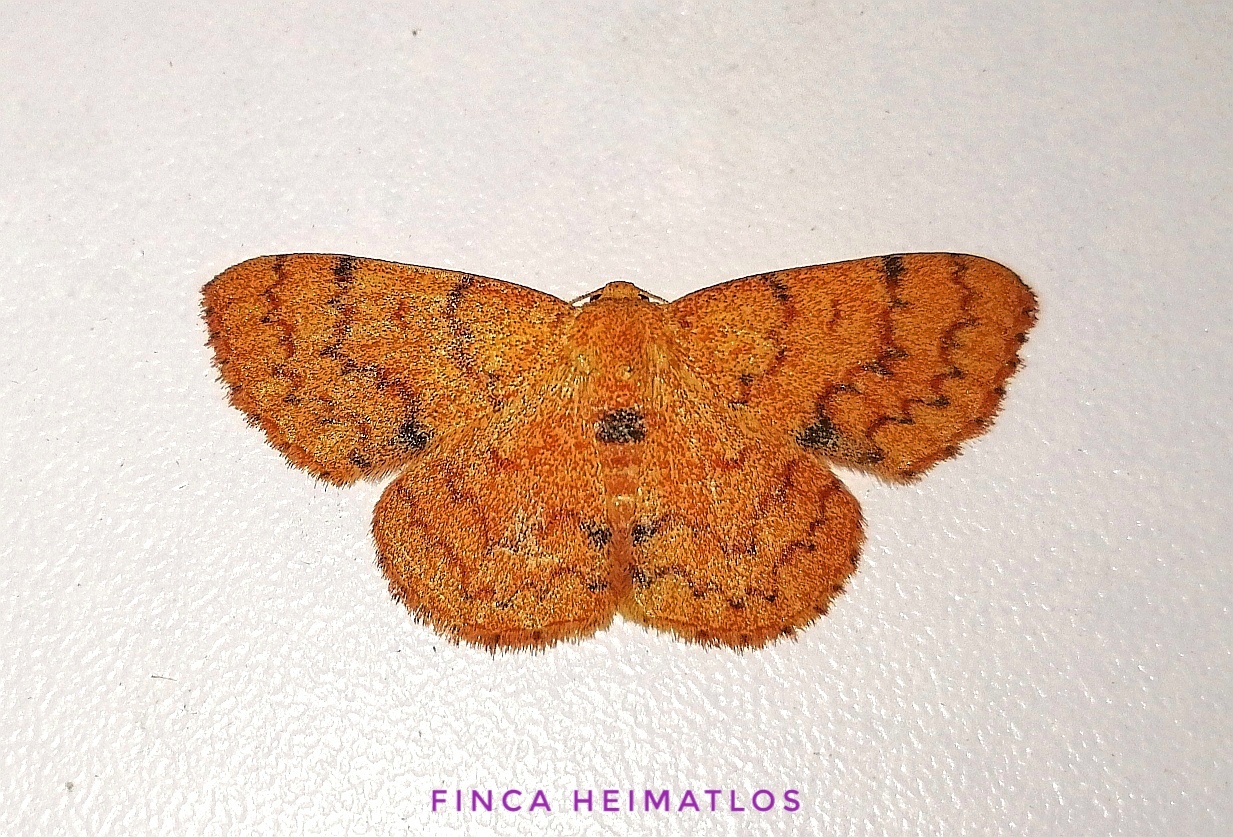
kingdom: Animalia
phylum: Arthropoda
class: Insecta
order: Lepidoptera
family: Geometridae
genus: Semaeopus
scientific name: Semaeopus rubida
